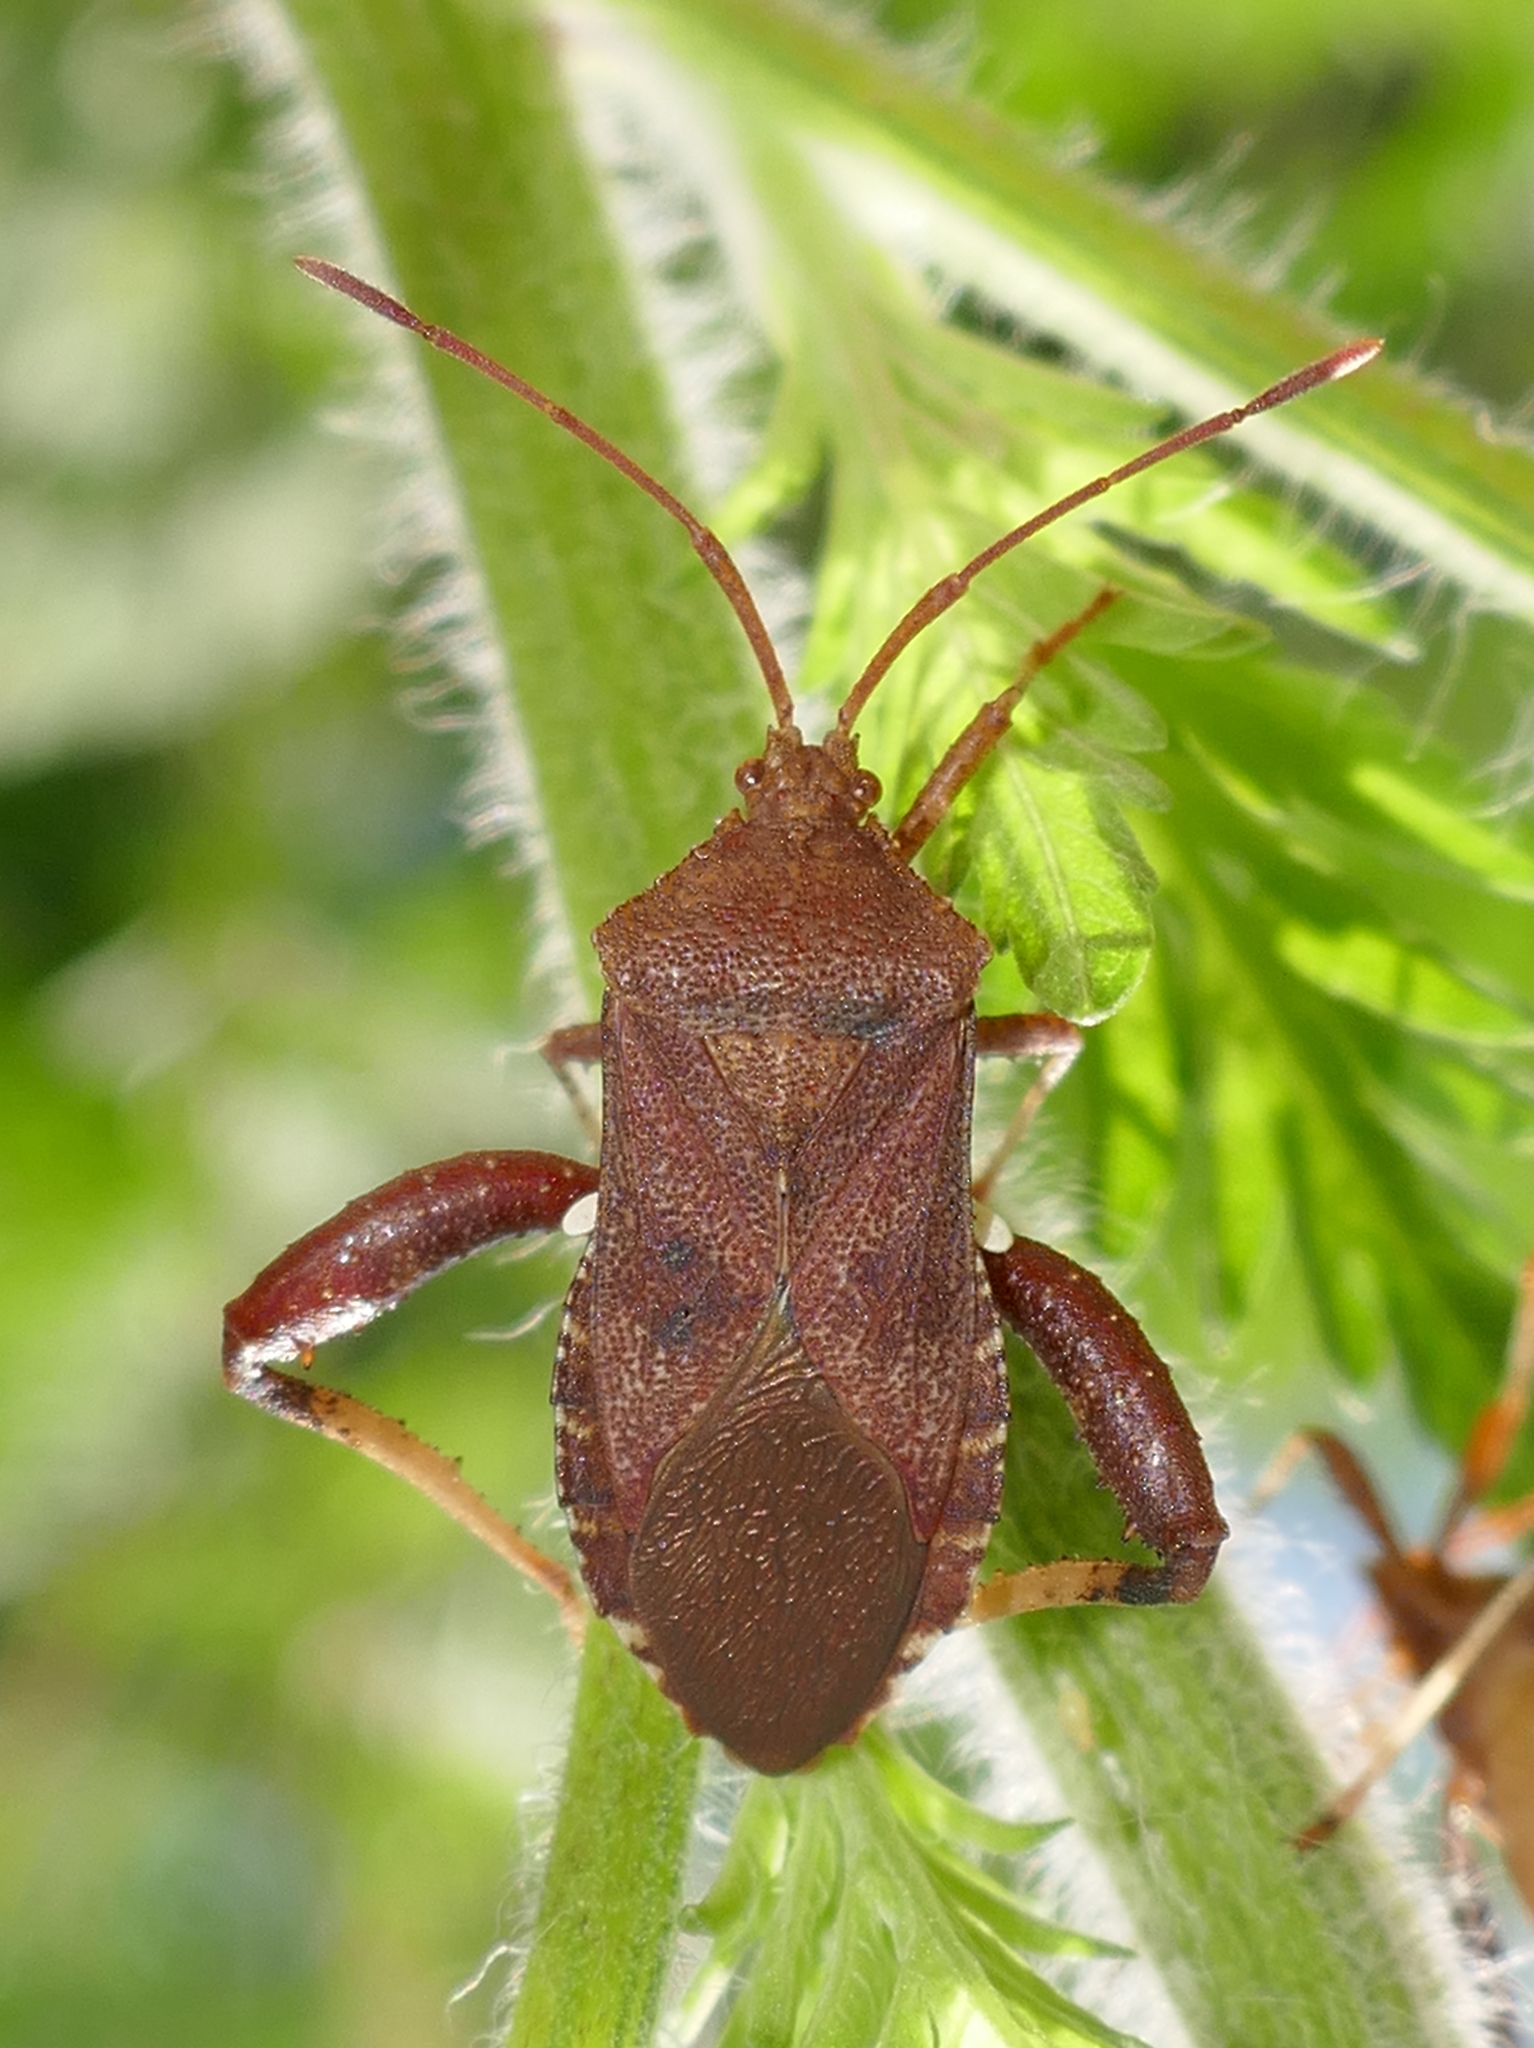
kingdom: Animalia
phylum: Arthropoda
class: Insecta
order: Hemiptera
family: Coreidae
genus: Euthochtha
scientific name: Euthochtha galeator
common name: Helmeted squash bug
